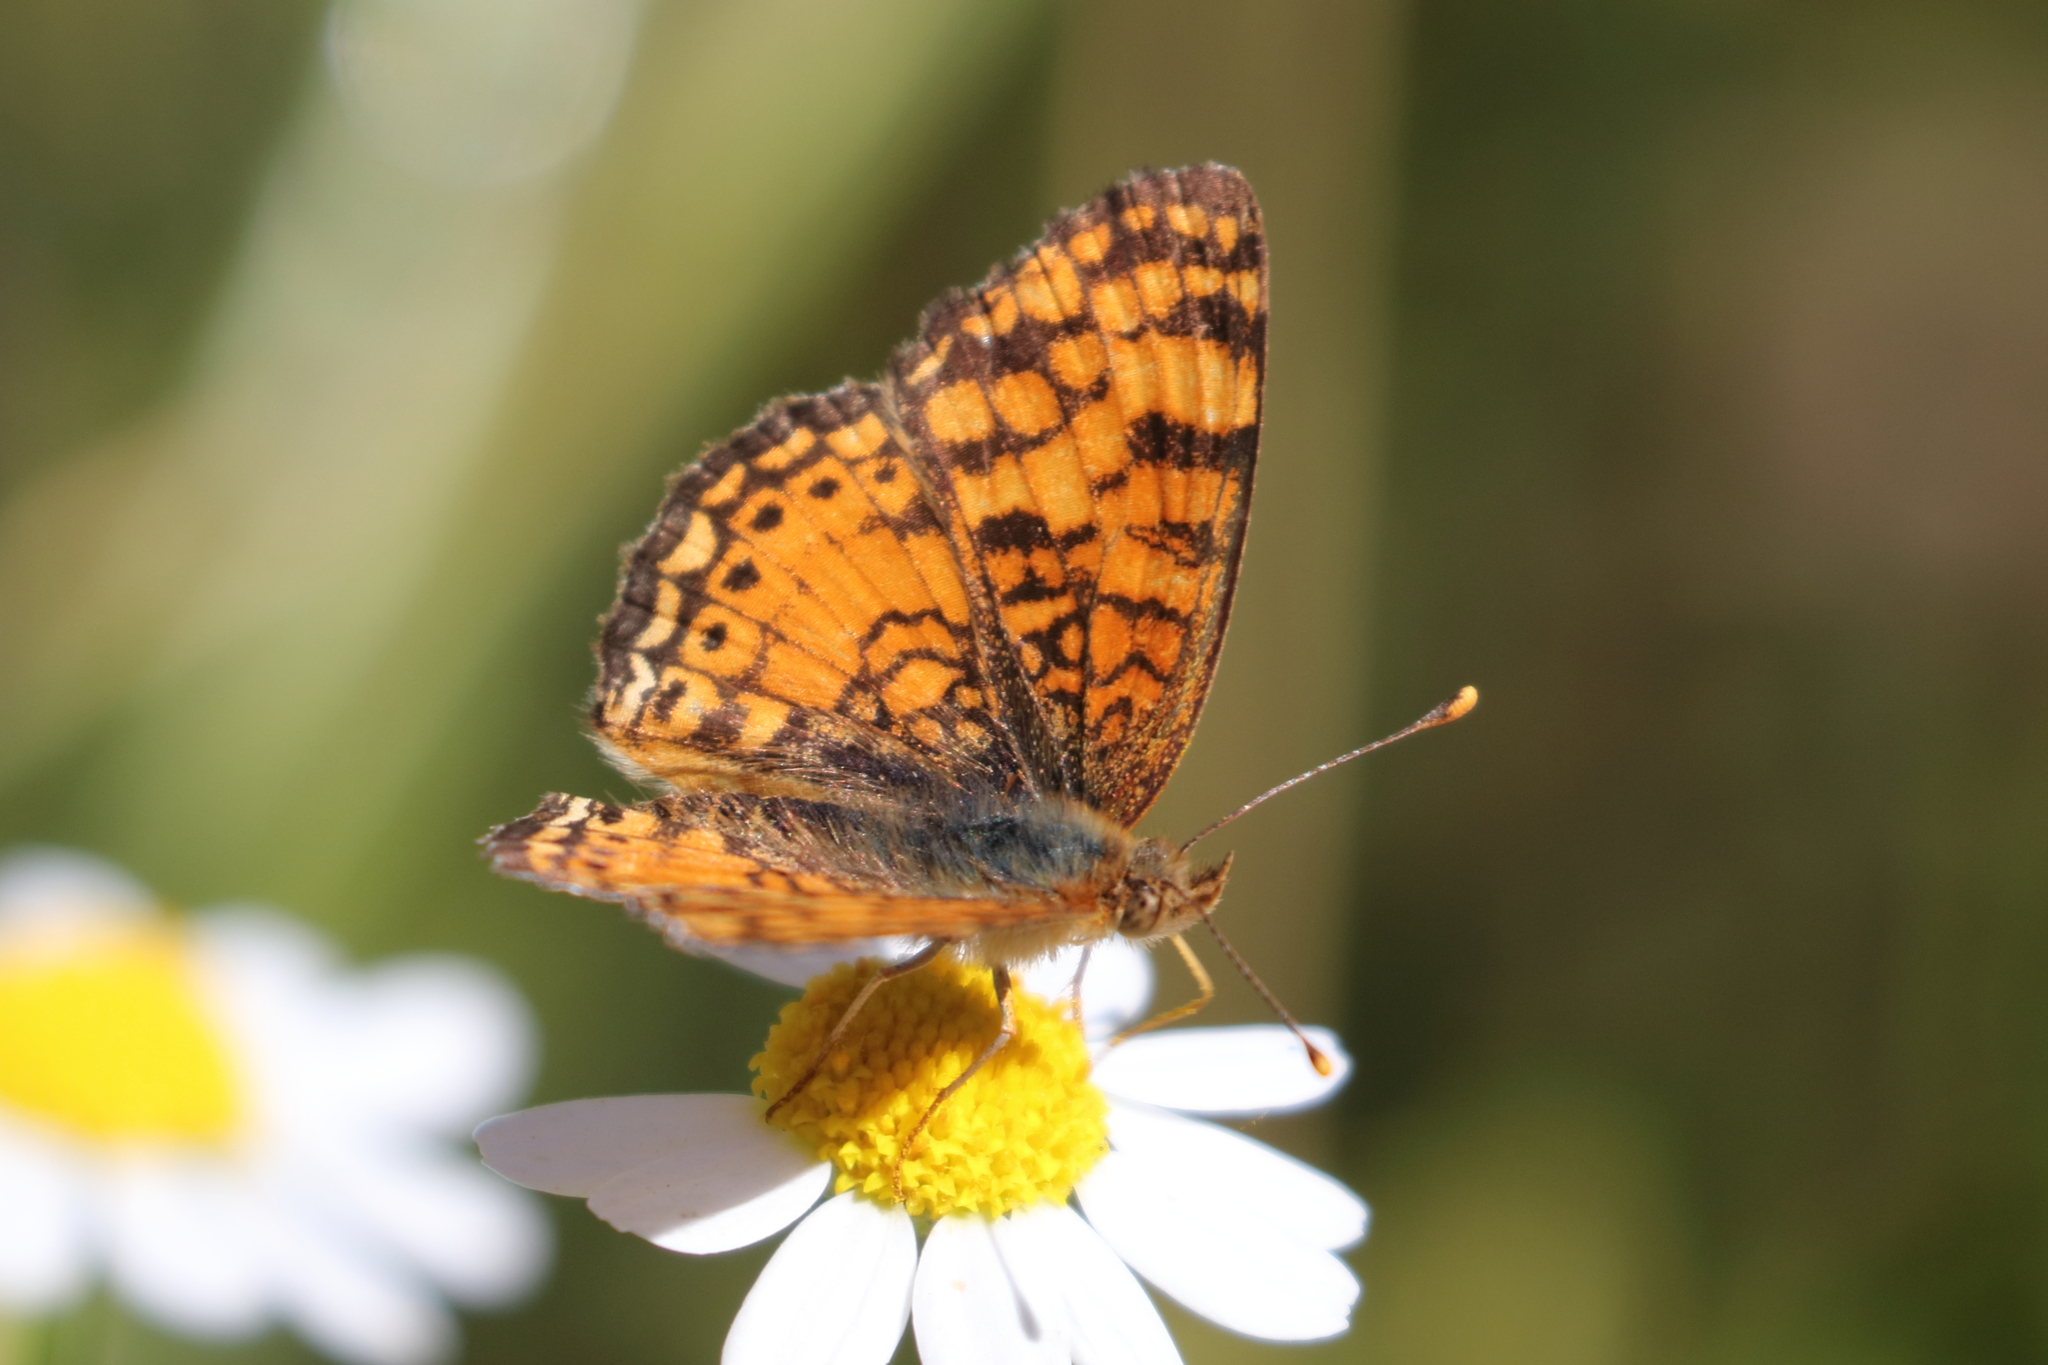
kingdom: Animalia
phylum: Arthropoda
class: Insecta
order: Lepidoptera
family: Nymphalidae
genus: Eresia
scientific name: Eresia aveyrona
